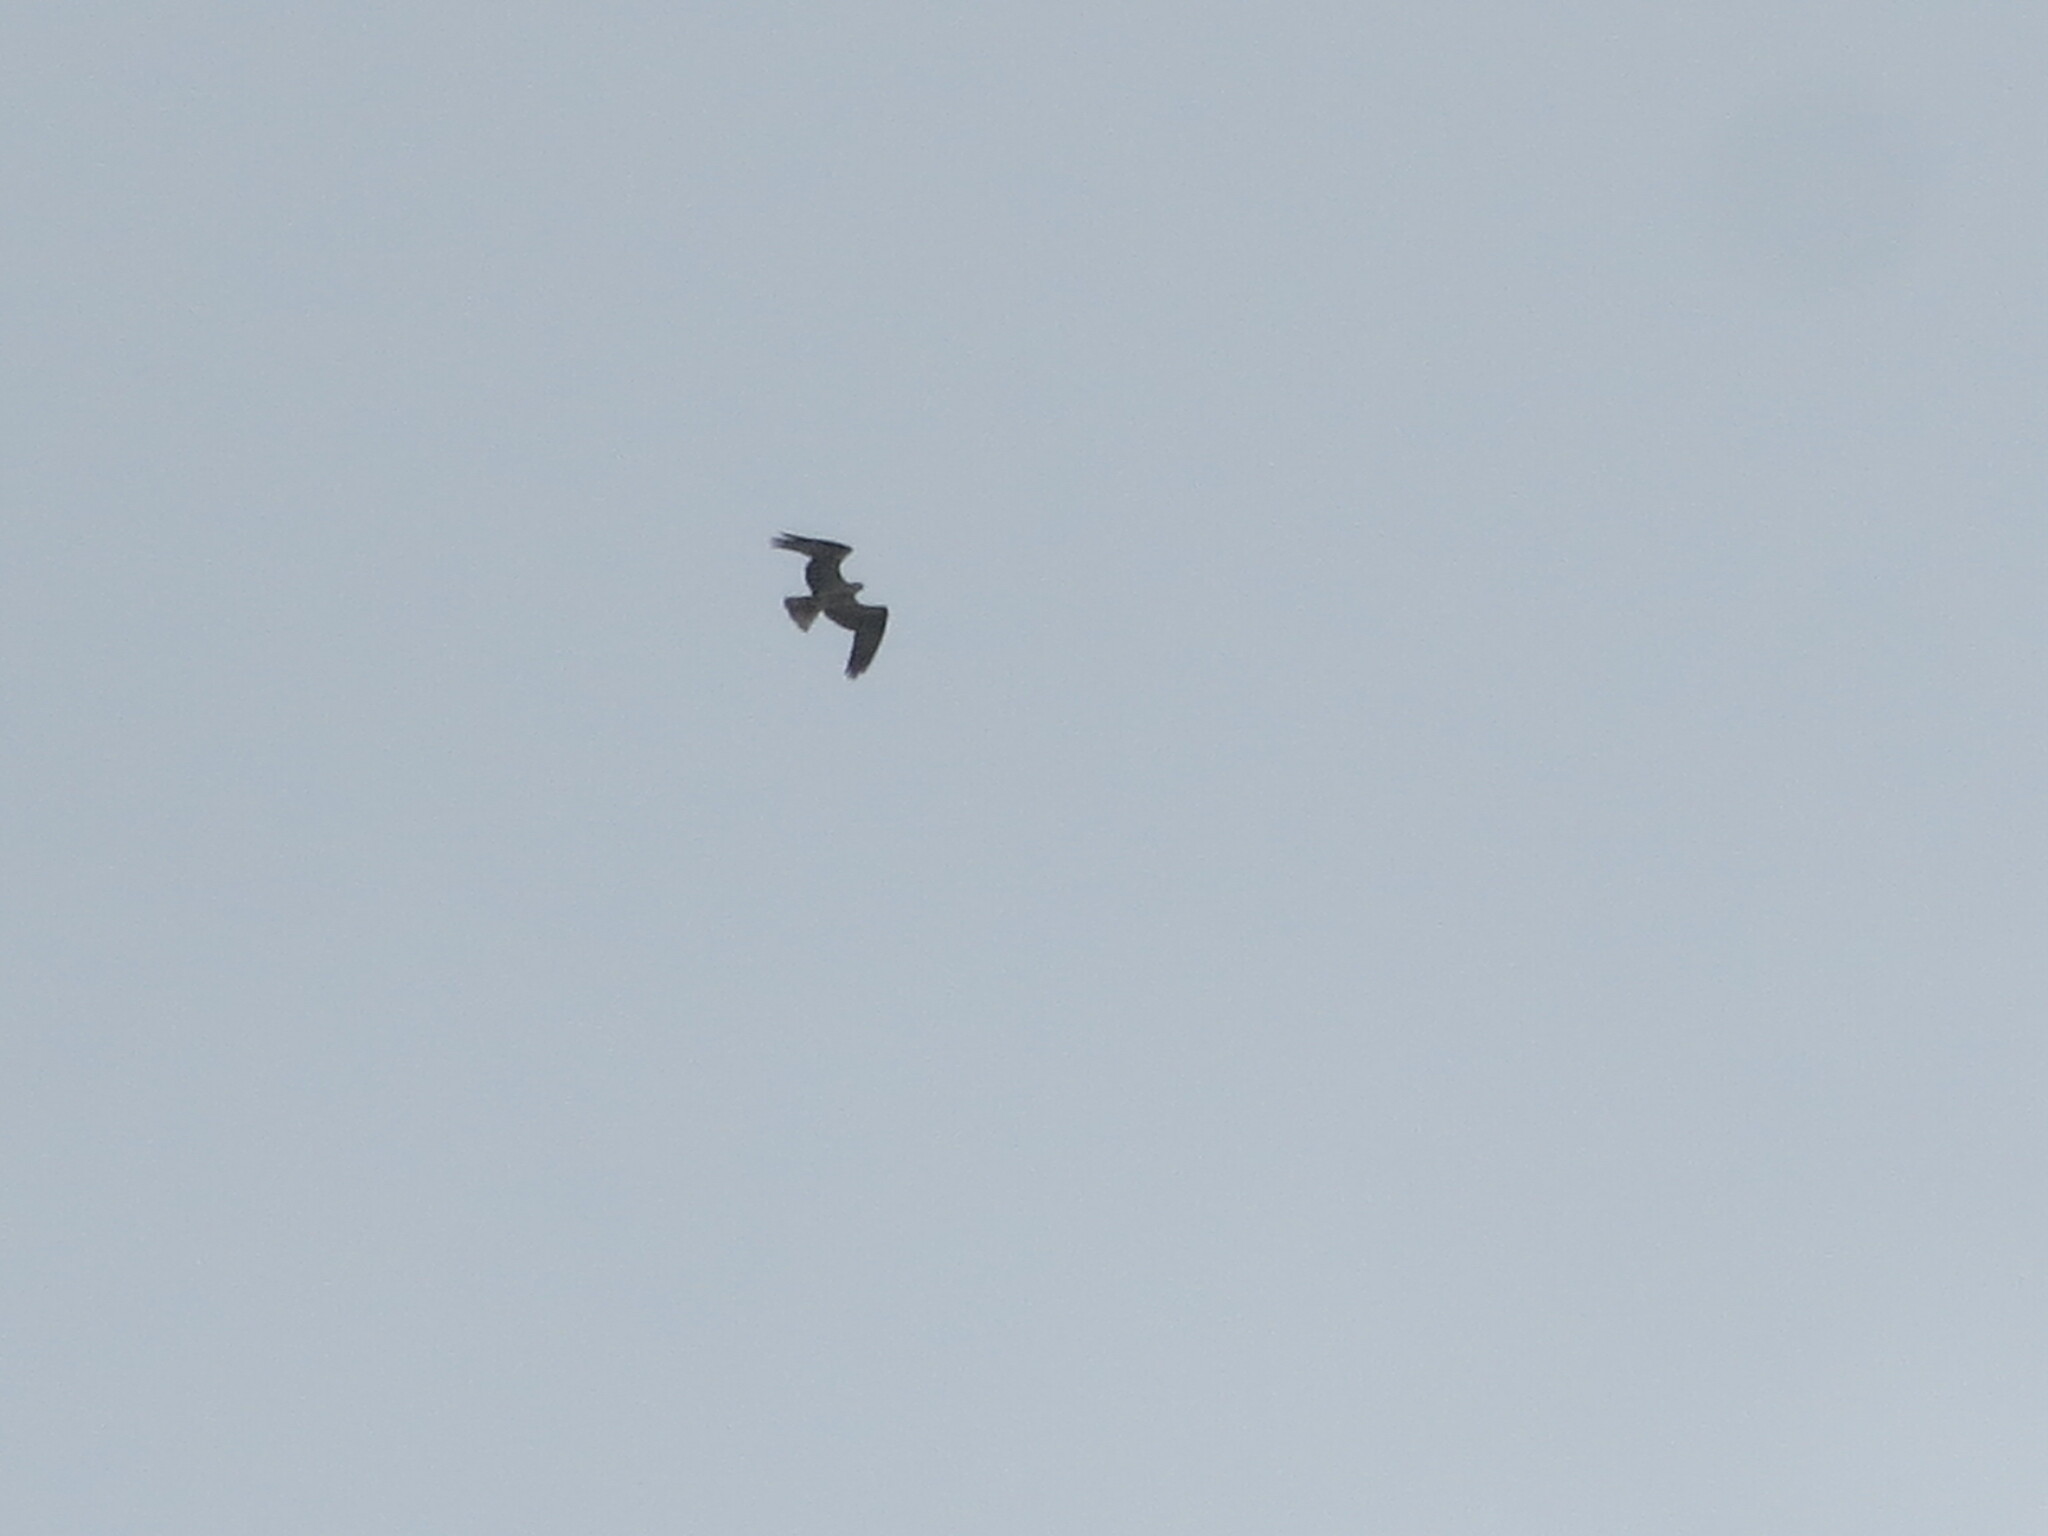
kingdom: Animalia
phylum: Chordata
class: Aves
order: Accipitriformes
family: Pandionidae
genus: Pandion
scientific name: Pandion haliaetus
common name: Osprey
